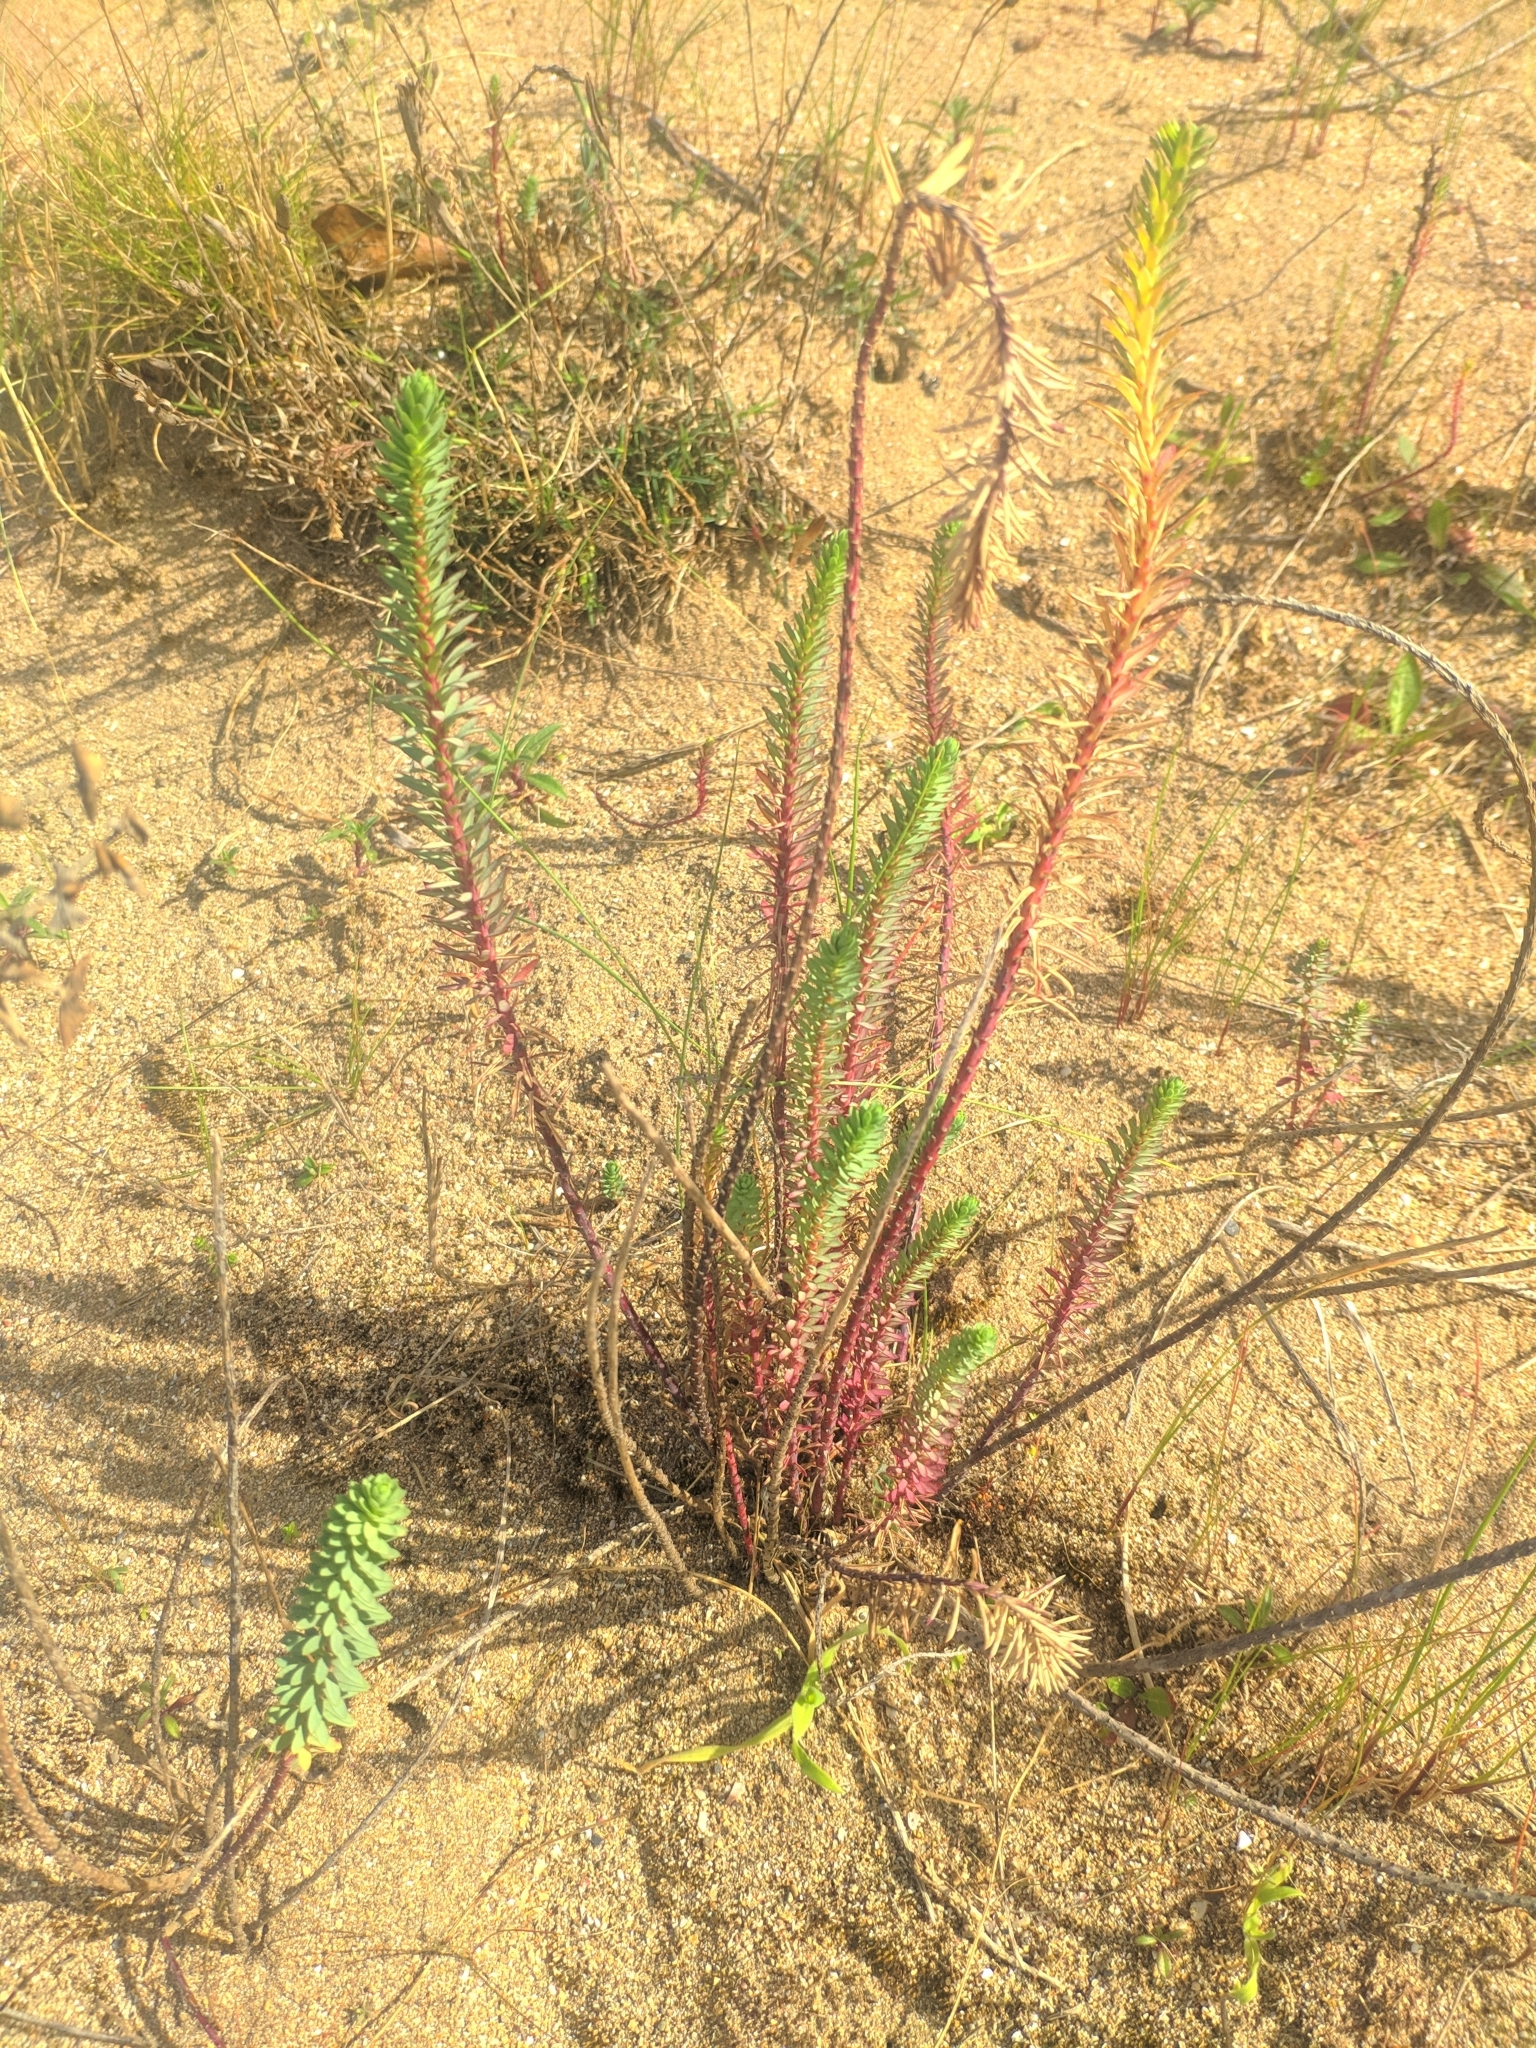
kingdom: Plantae
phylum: Tracheophyta
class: Magnoliopsida
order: Malpighiales
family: Euphorbiaceae
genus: Euphorbia
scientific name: Euphorbia paralias
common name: Sea spurge
